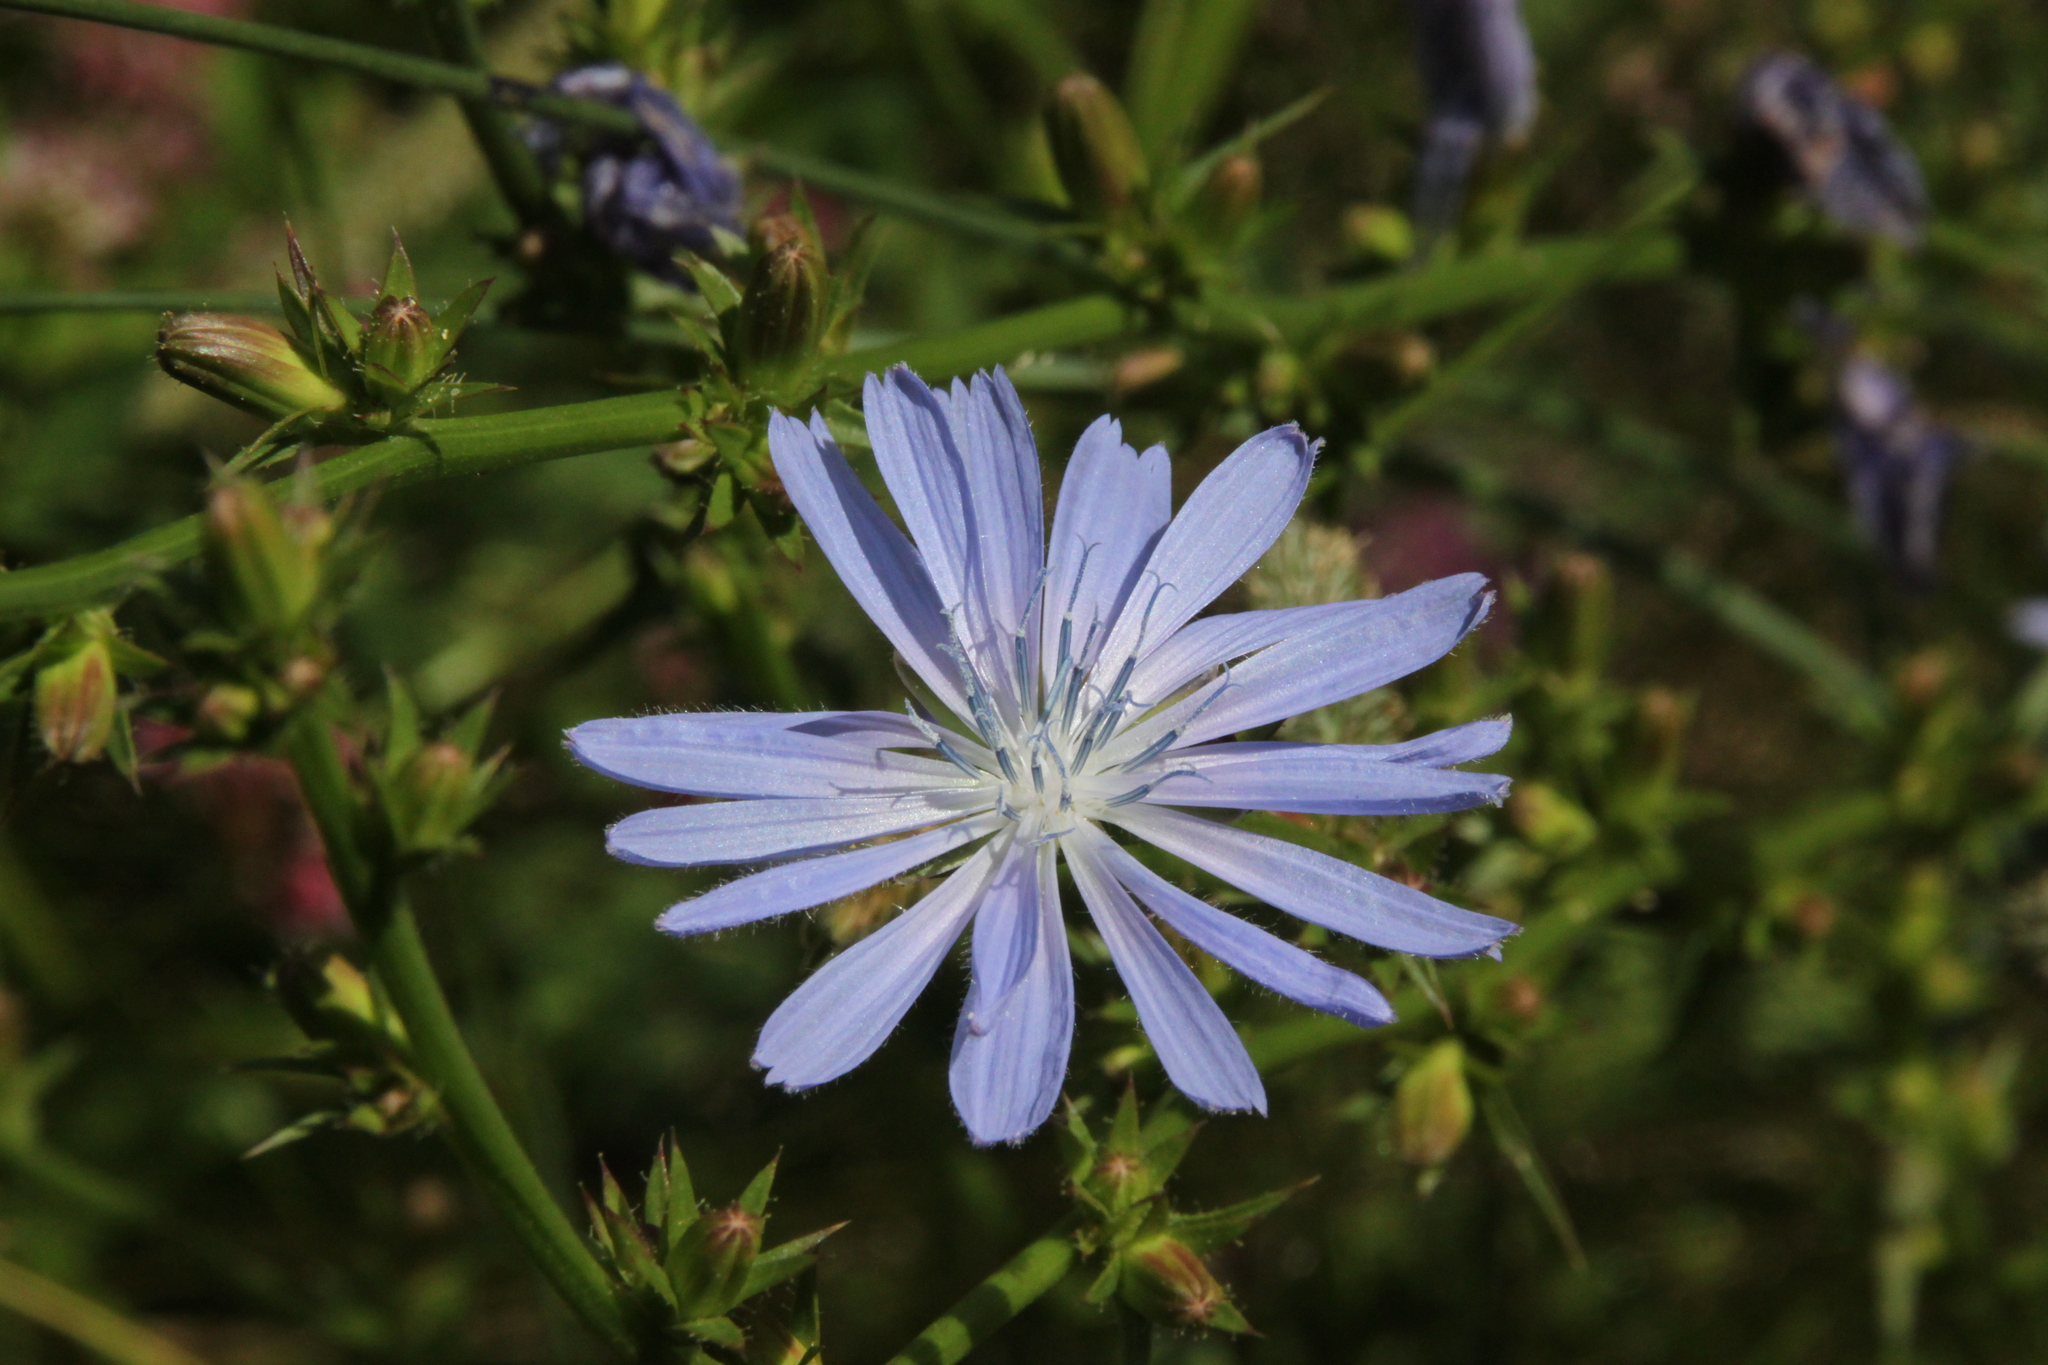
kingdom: Plantae
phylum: Tracheophyta
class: Magnoliopsida
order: Asterales
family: Asteraceae
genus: Cichorium
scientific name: Cichorium intybus
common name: Chicory
